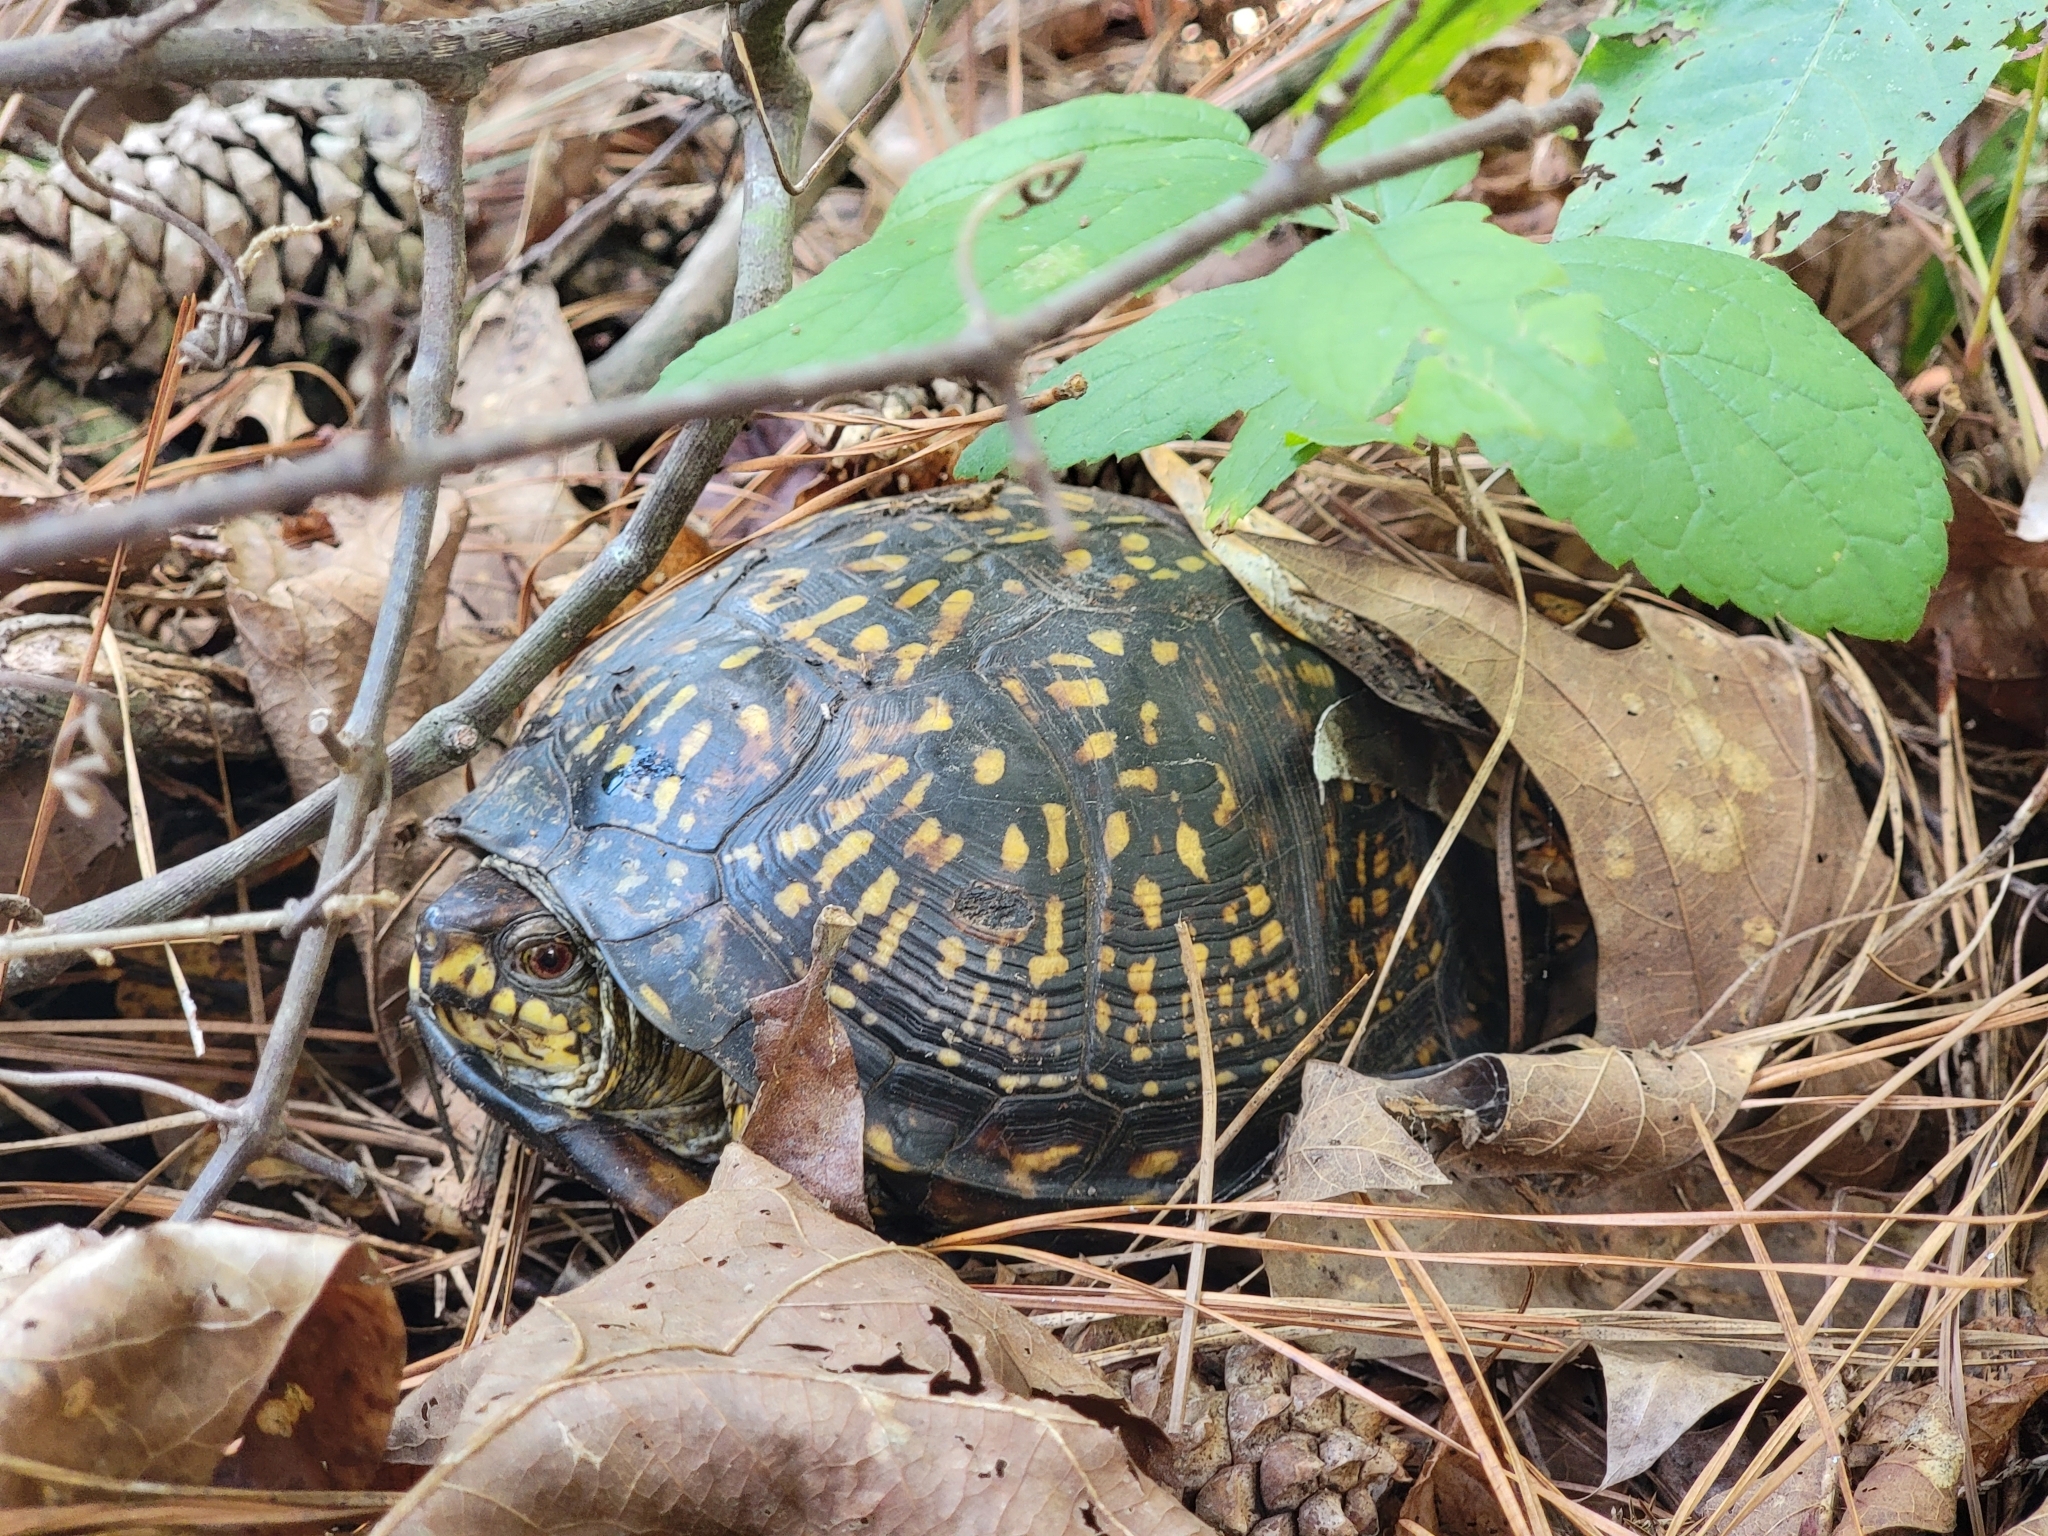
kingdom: Animalia
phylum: Chordata
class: Testudines
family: Emydidae
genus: Terrapene
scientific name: Terrapene carolina
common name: Common box turtle
